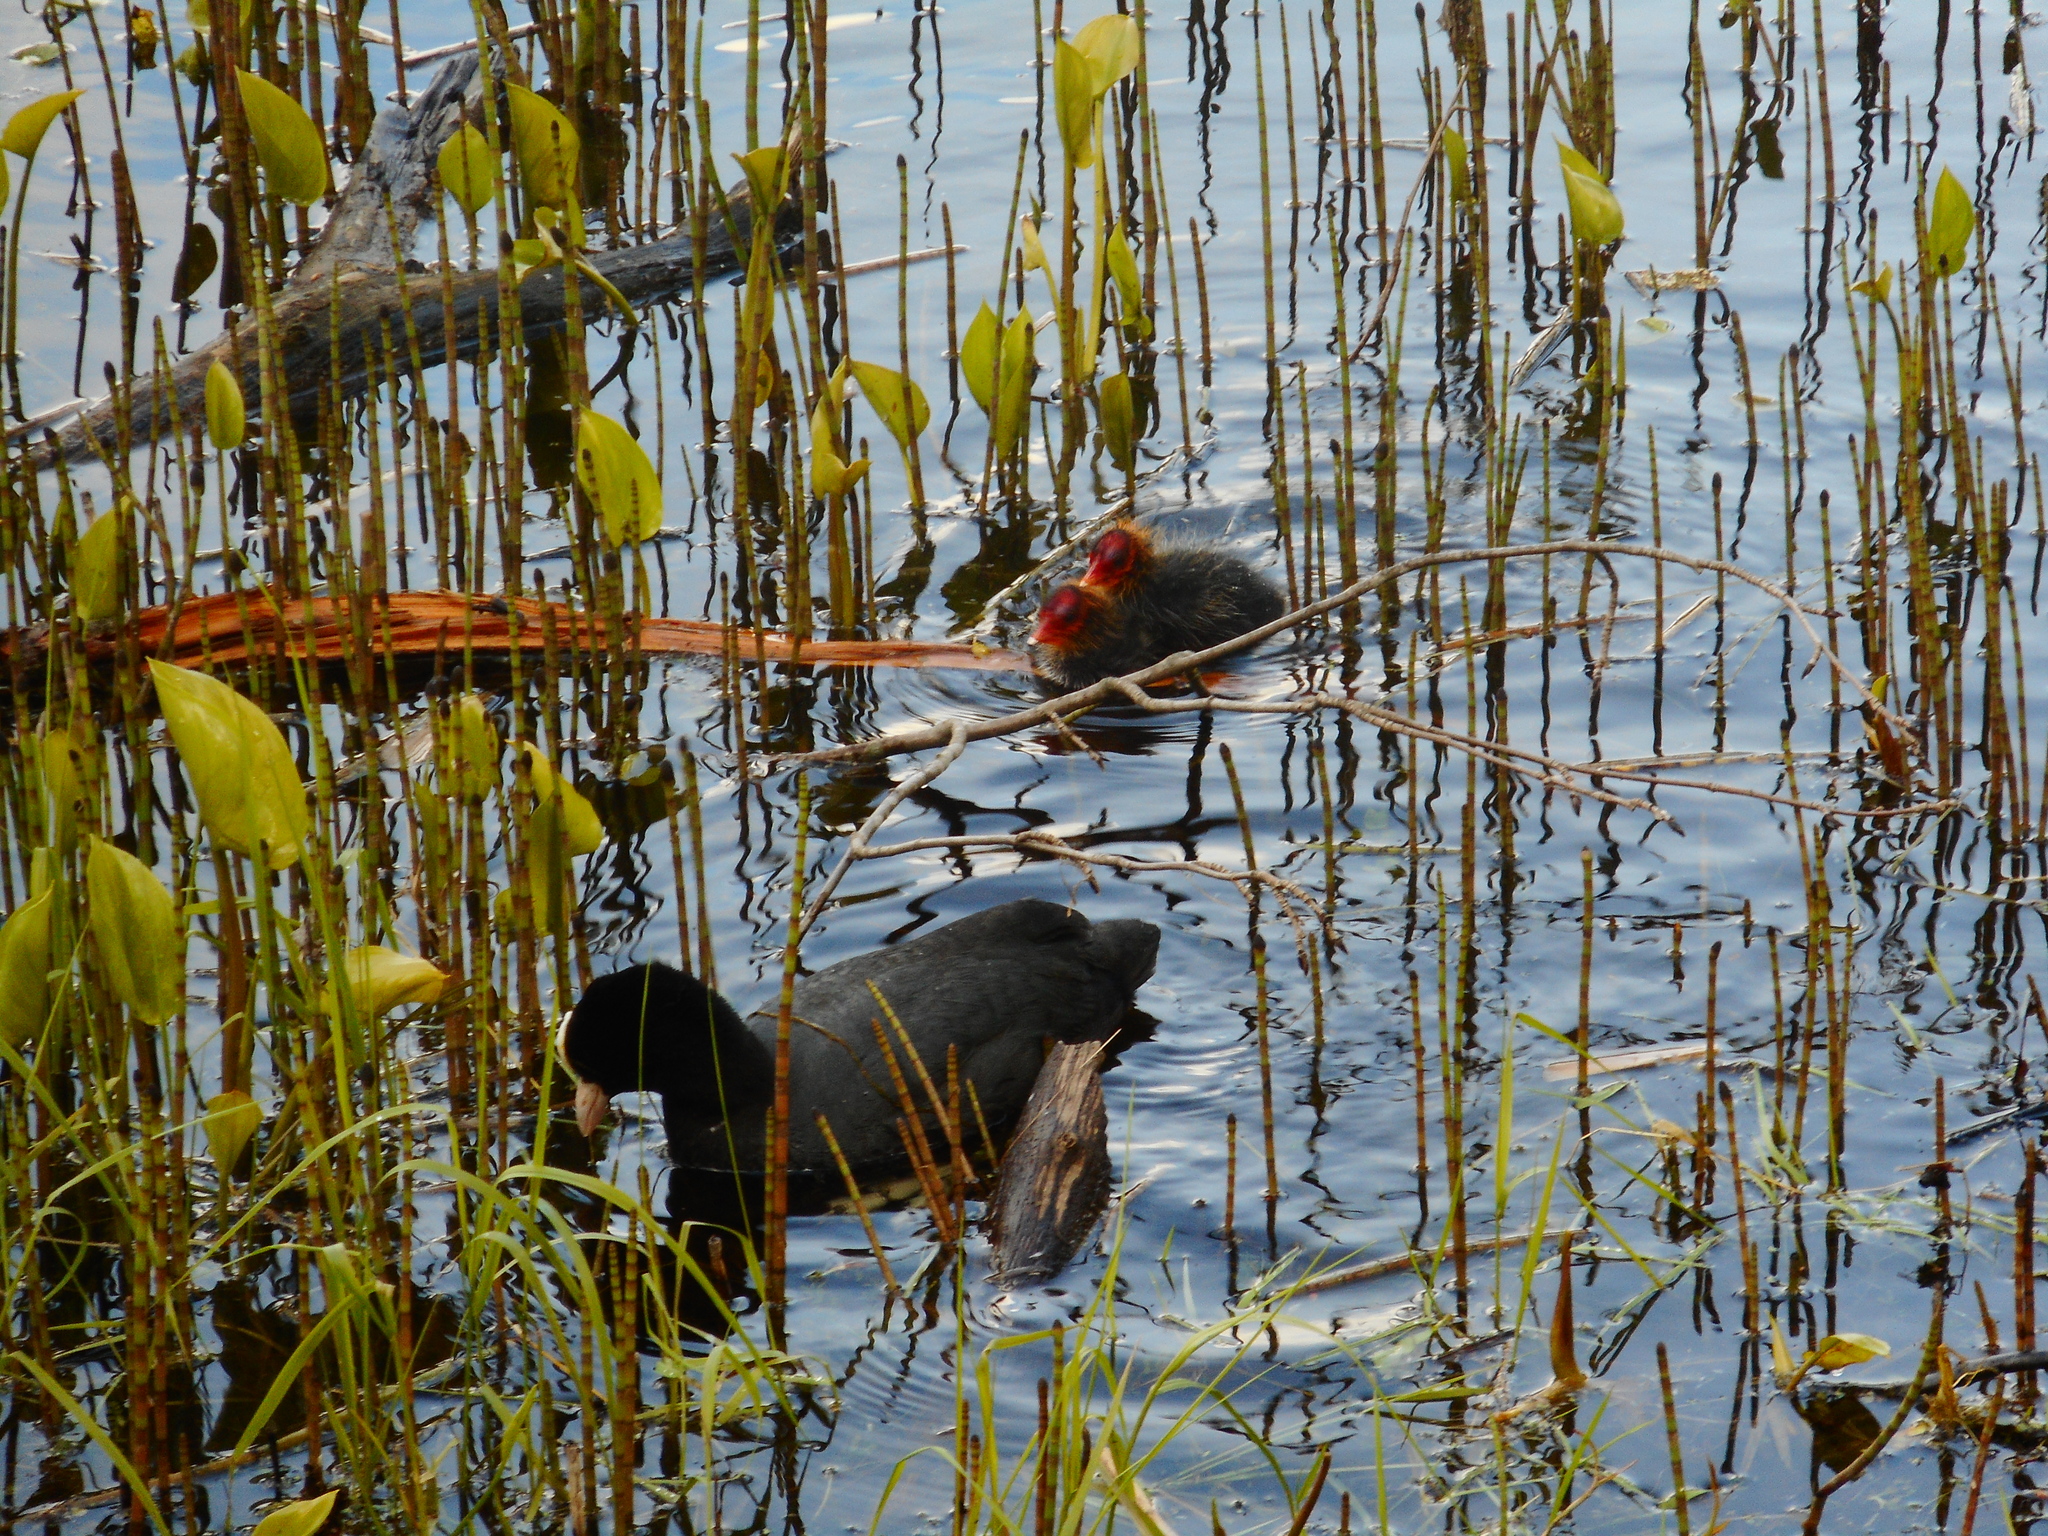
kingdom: Animalia
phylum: Chordata
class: Aves
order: Gruiformes
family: Rallidae
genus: Fulica
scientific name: Fulica atra
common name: Eurasian coot
